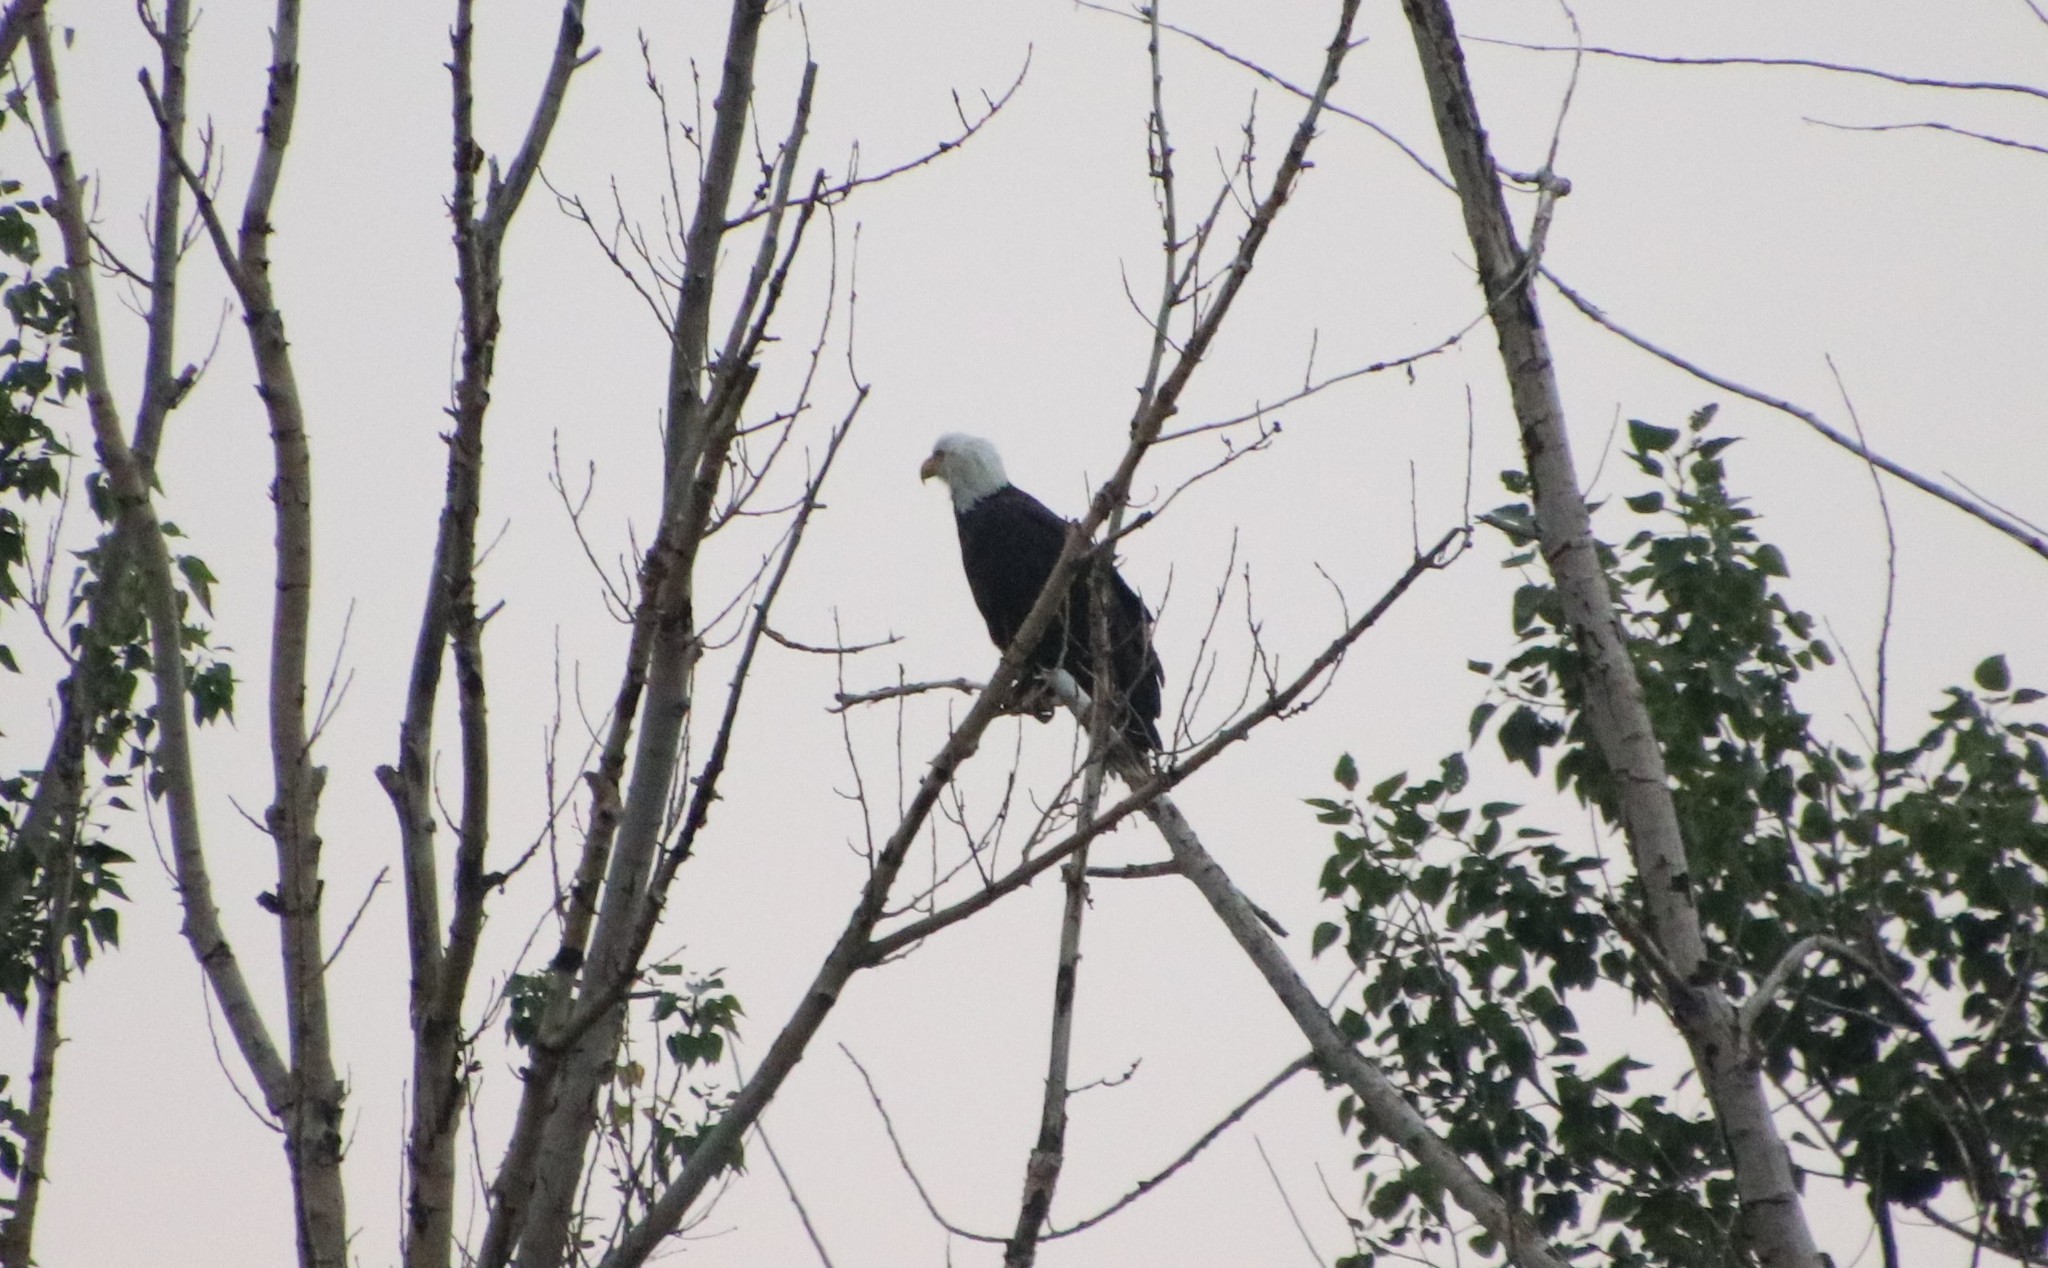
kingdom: Animalia
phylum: Chordata
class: Aves
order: Accipitriformes
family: Accipitridae
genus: Haliaeetus
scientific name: Haliaeetus leucocephalus
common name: Bald eagle
